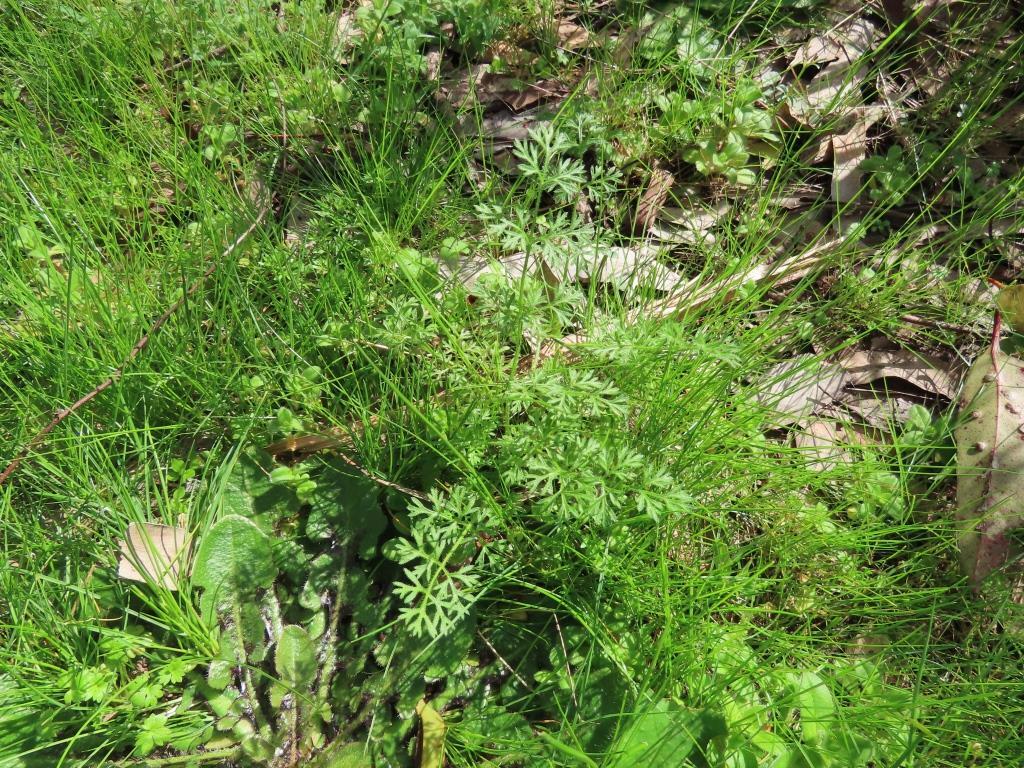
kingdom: Plantae
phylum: Tracheophyta
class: Magnoliopsida
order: Apiales
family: Apiaceae
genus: Daucus
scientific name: Daucus glochidiatus
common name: Australian carrot
